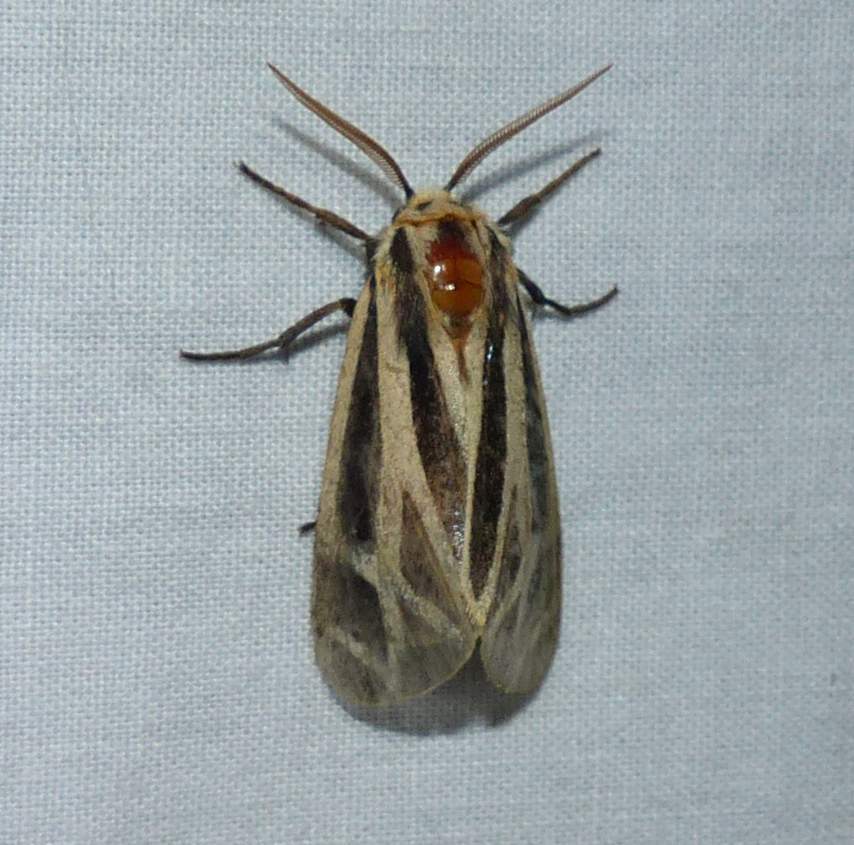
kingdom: Animalia
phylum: Arthropoda
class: Insecta
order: Lepidoptera
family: Erebidae
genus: Apantesis
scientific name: Apantesis phalerata
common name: Harnessed tiger moth
